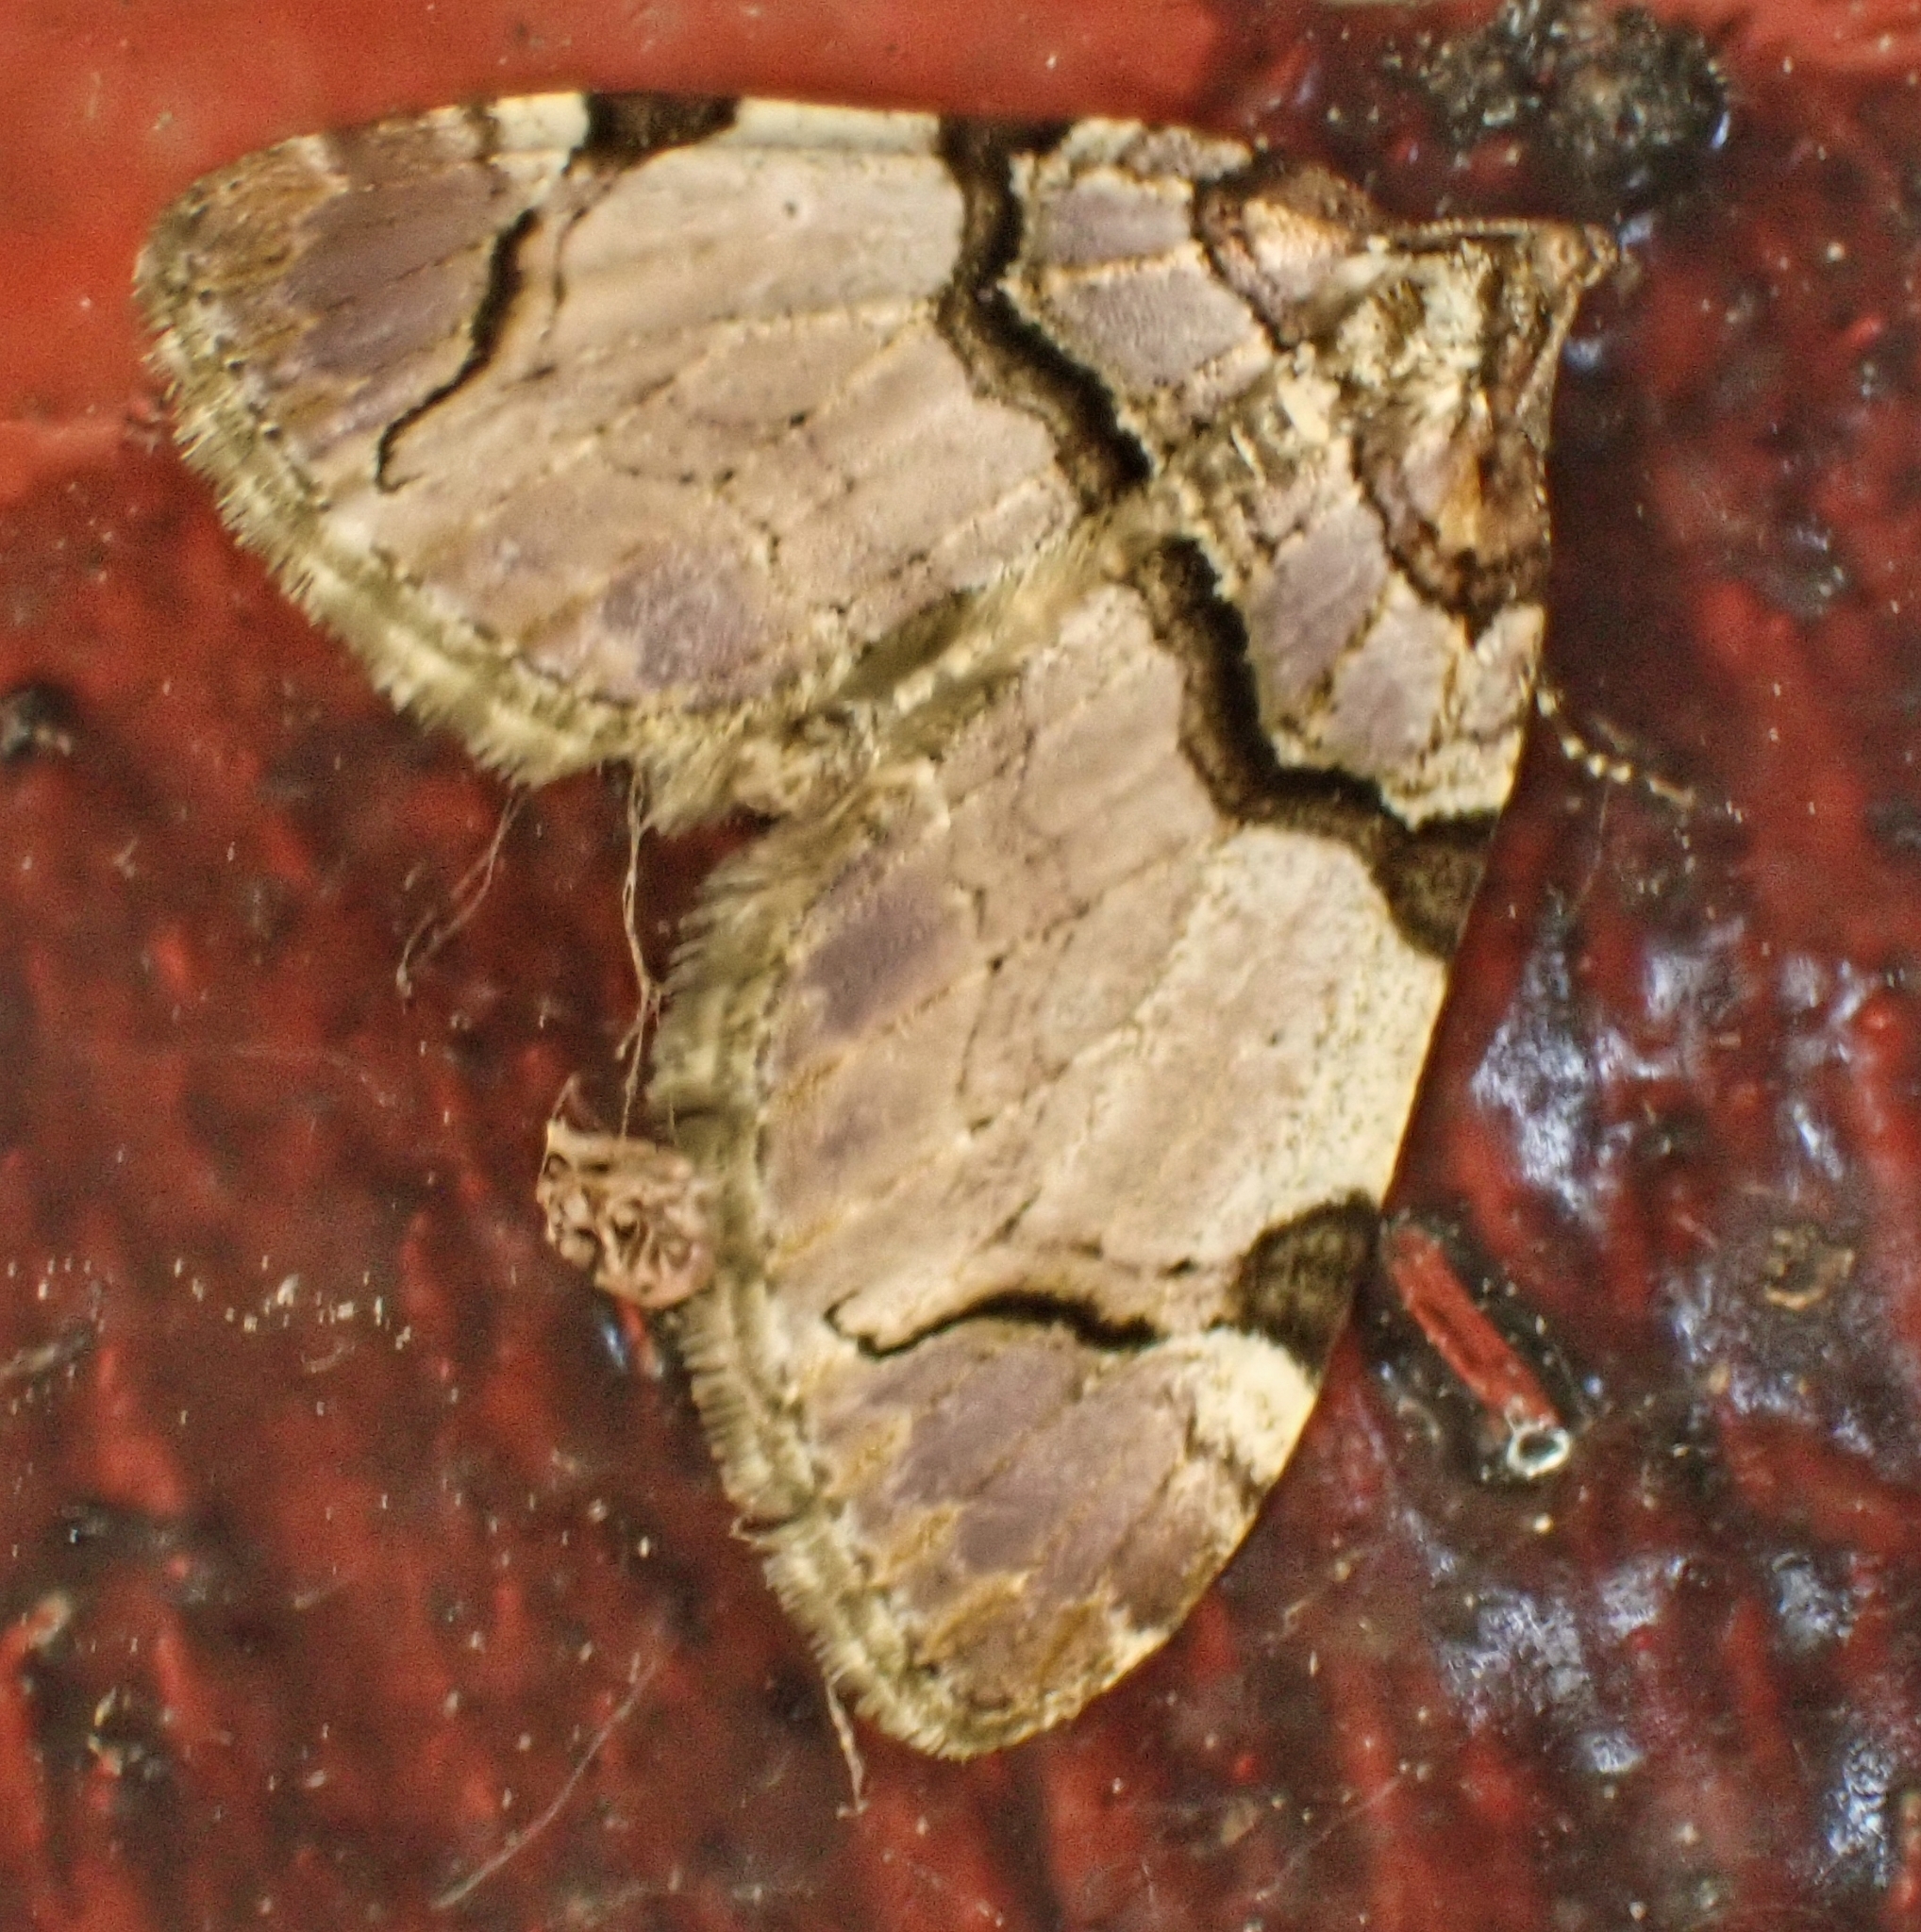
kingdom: Animalia
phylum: Arthropoda
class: Insecta
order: Lepidoptera
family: Geometridae
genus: Anticlea
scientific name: Anticlea derivata
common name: Streamer
